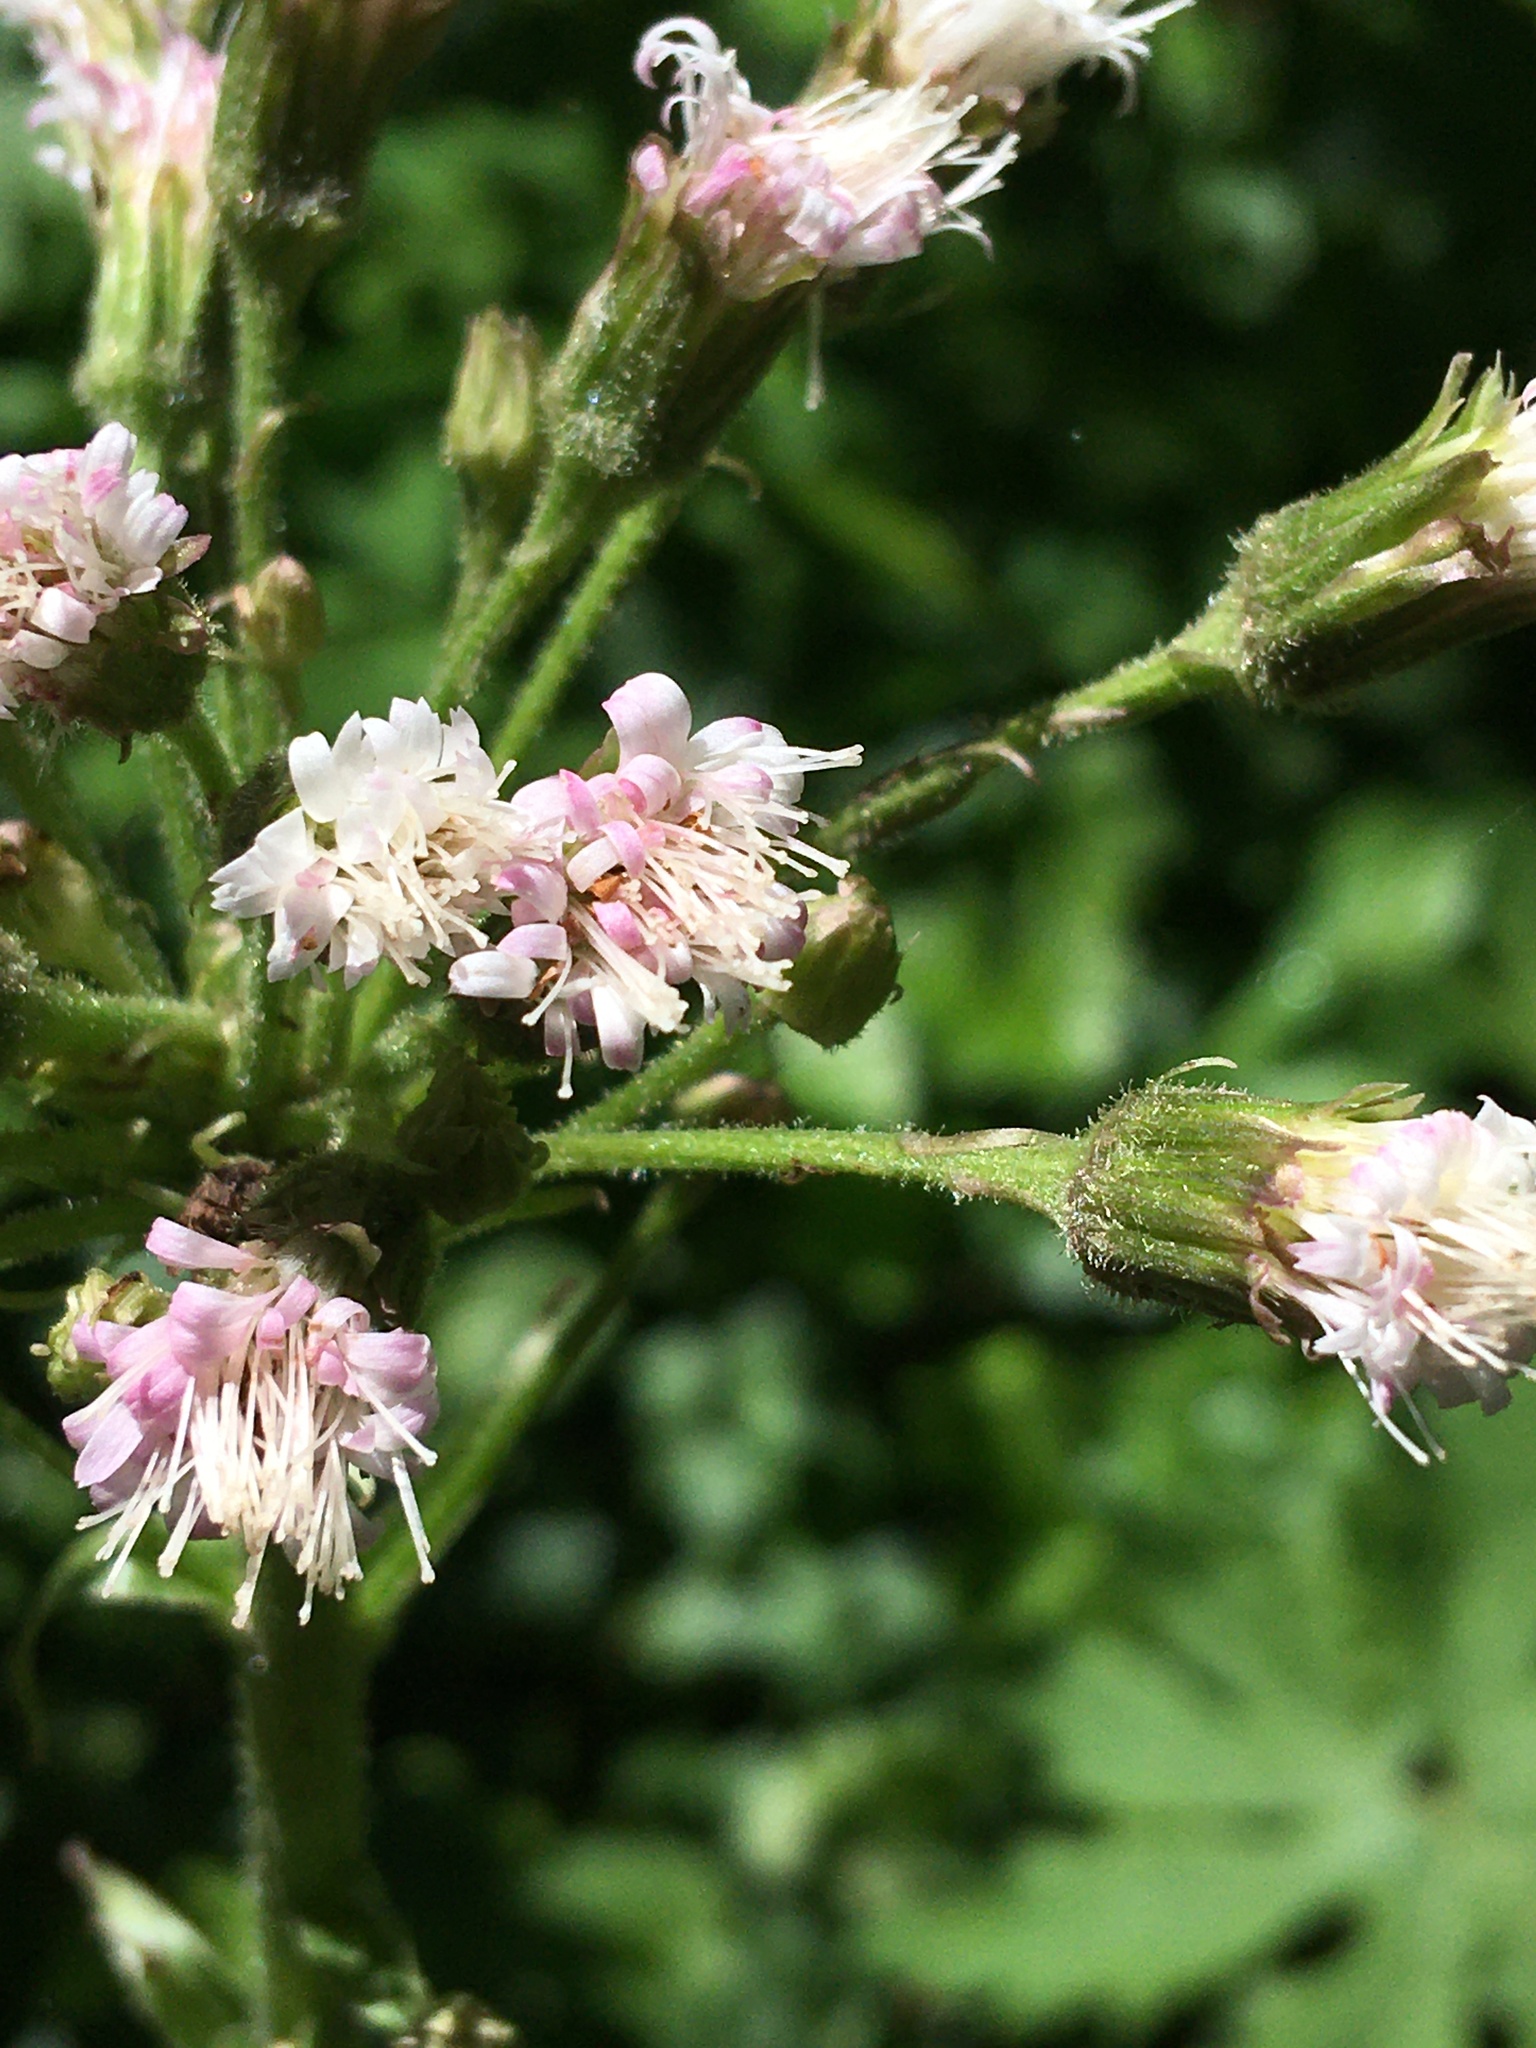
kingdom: Plantae
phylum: Tracheophyta
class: Magnoliopsida
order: Asterales
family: Asteraceae
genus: Petasites
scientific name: Petasites frigidus
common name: Arctic butterbur
